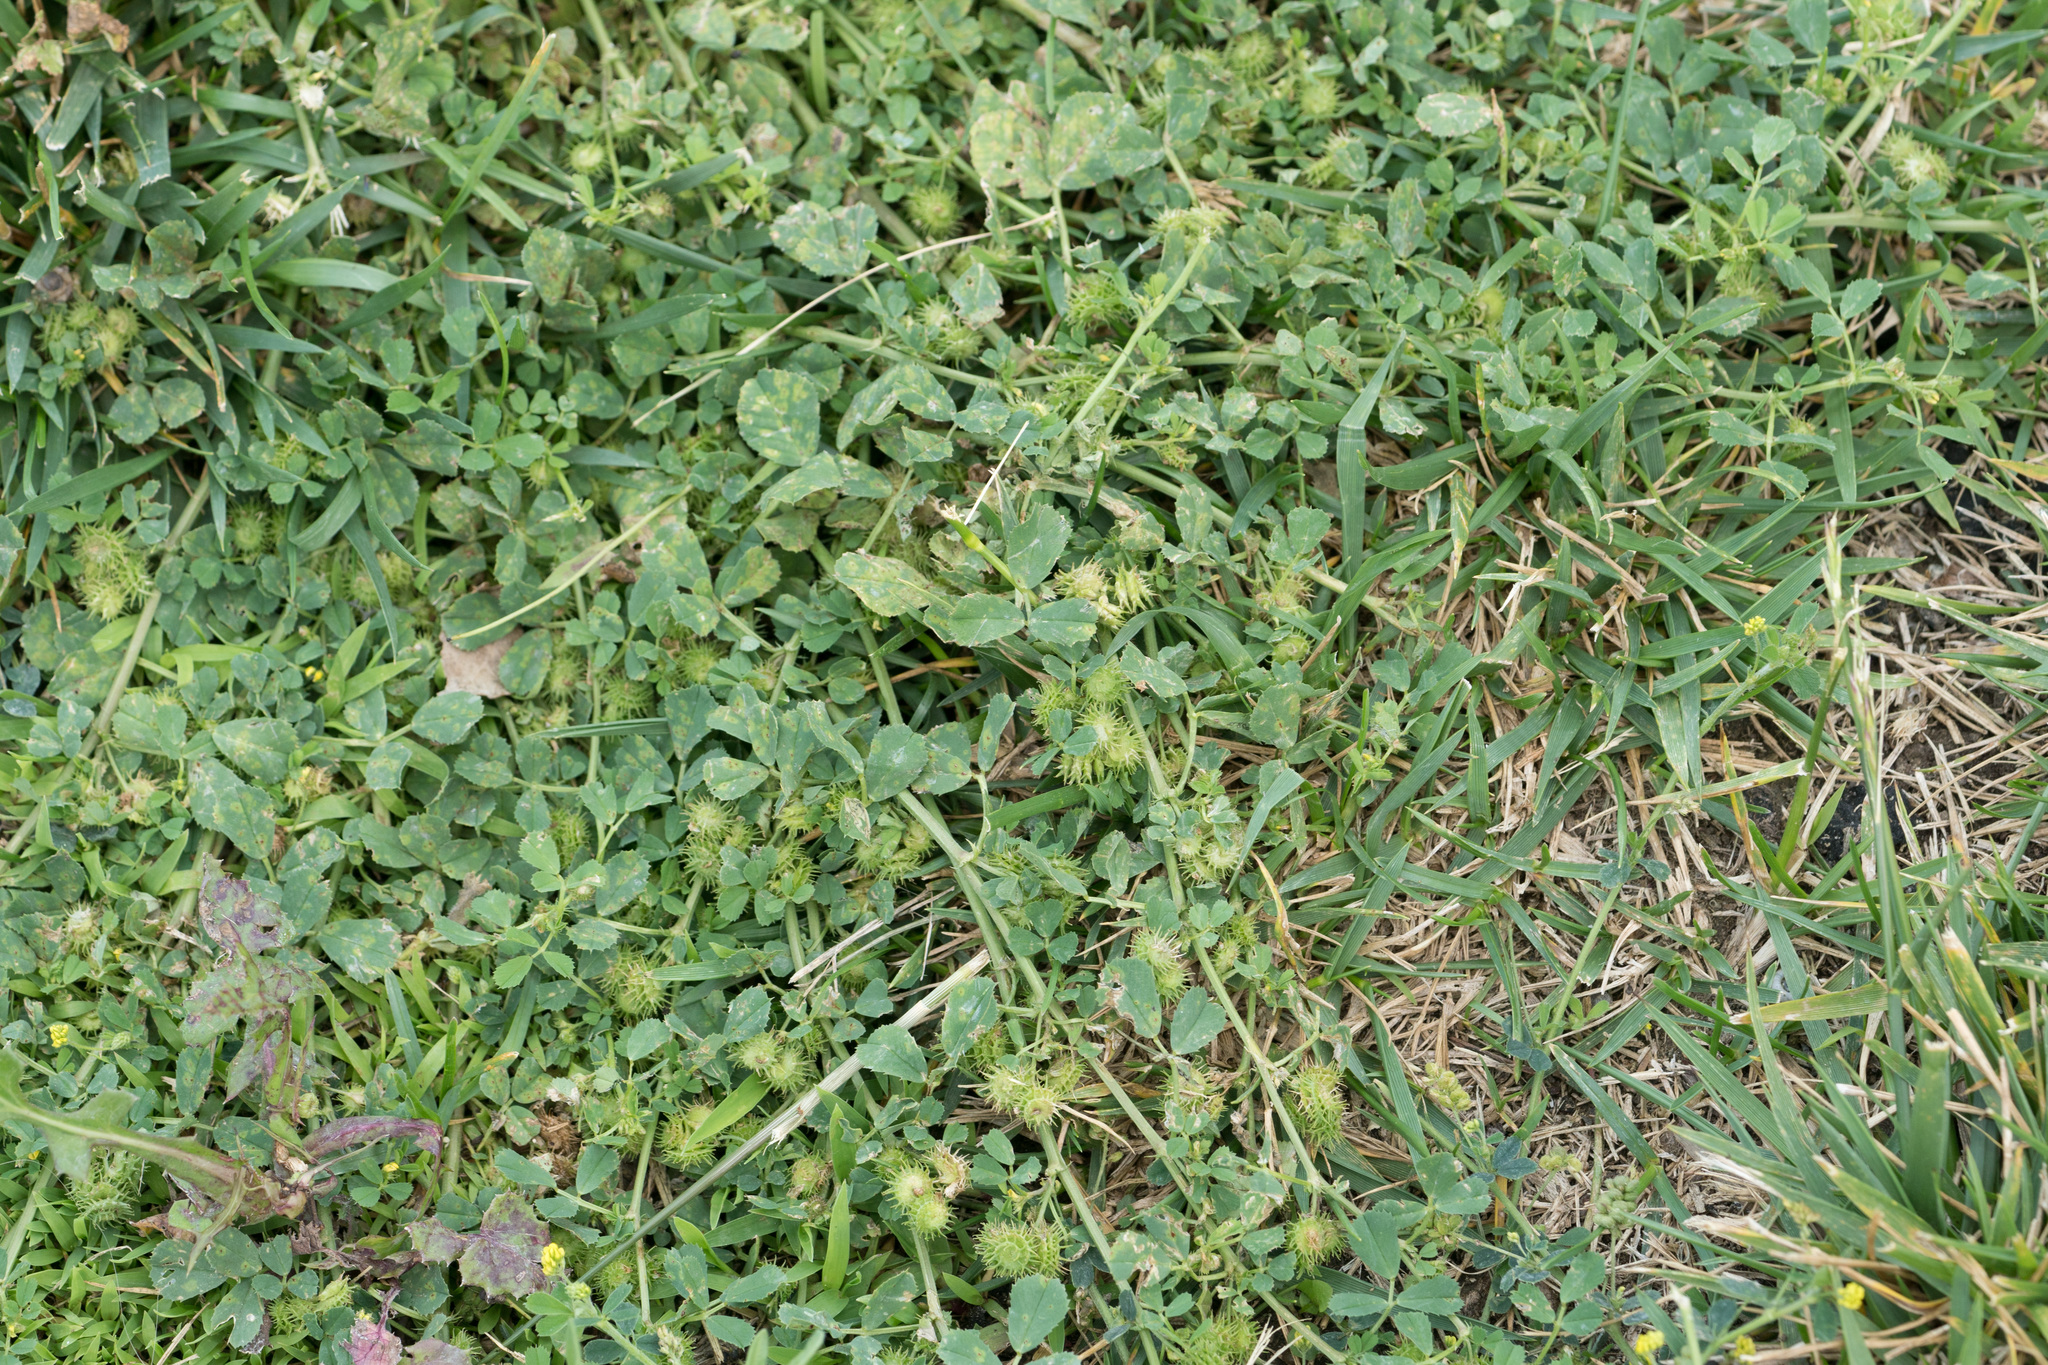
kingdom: Plantae
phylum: Tracheophyta
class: Magnoliopsida
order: Fabales
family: Fabaceae
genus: Medicago
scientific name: Medicago polymorpha
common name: Burclover
